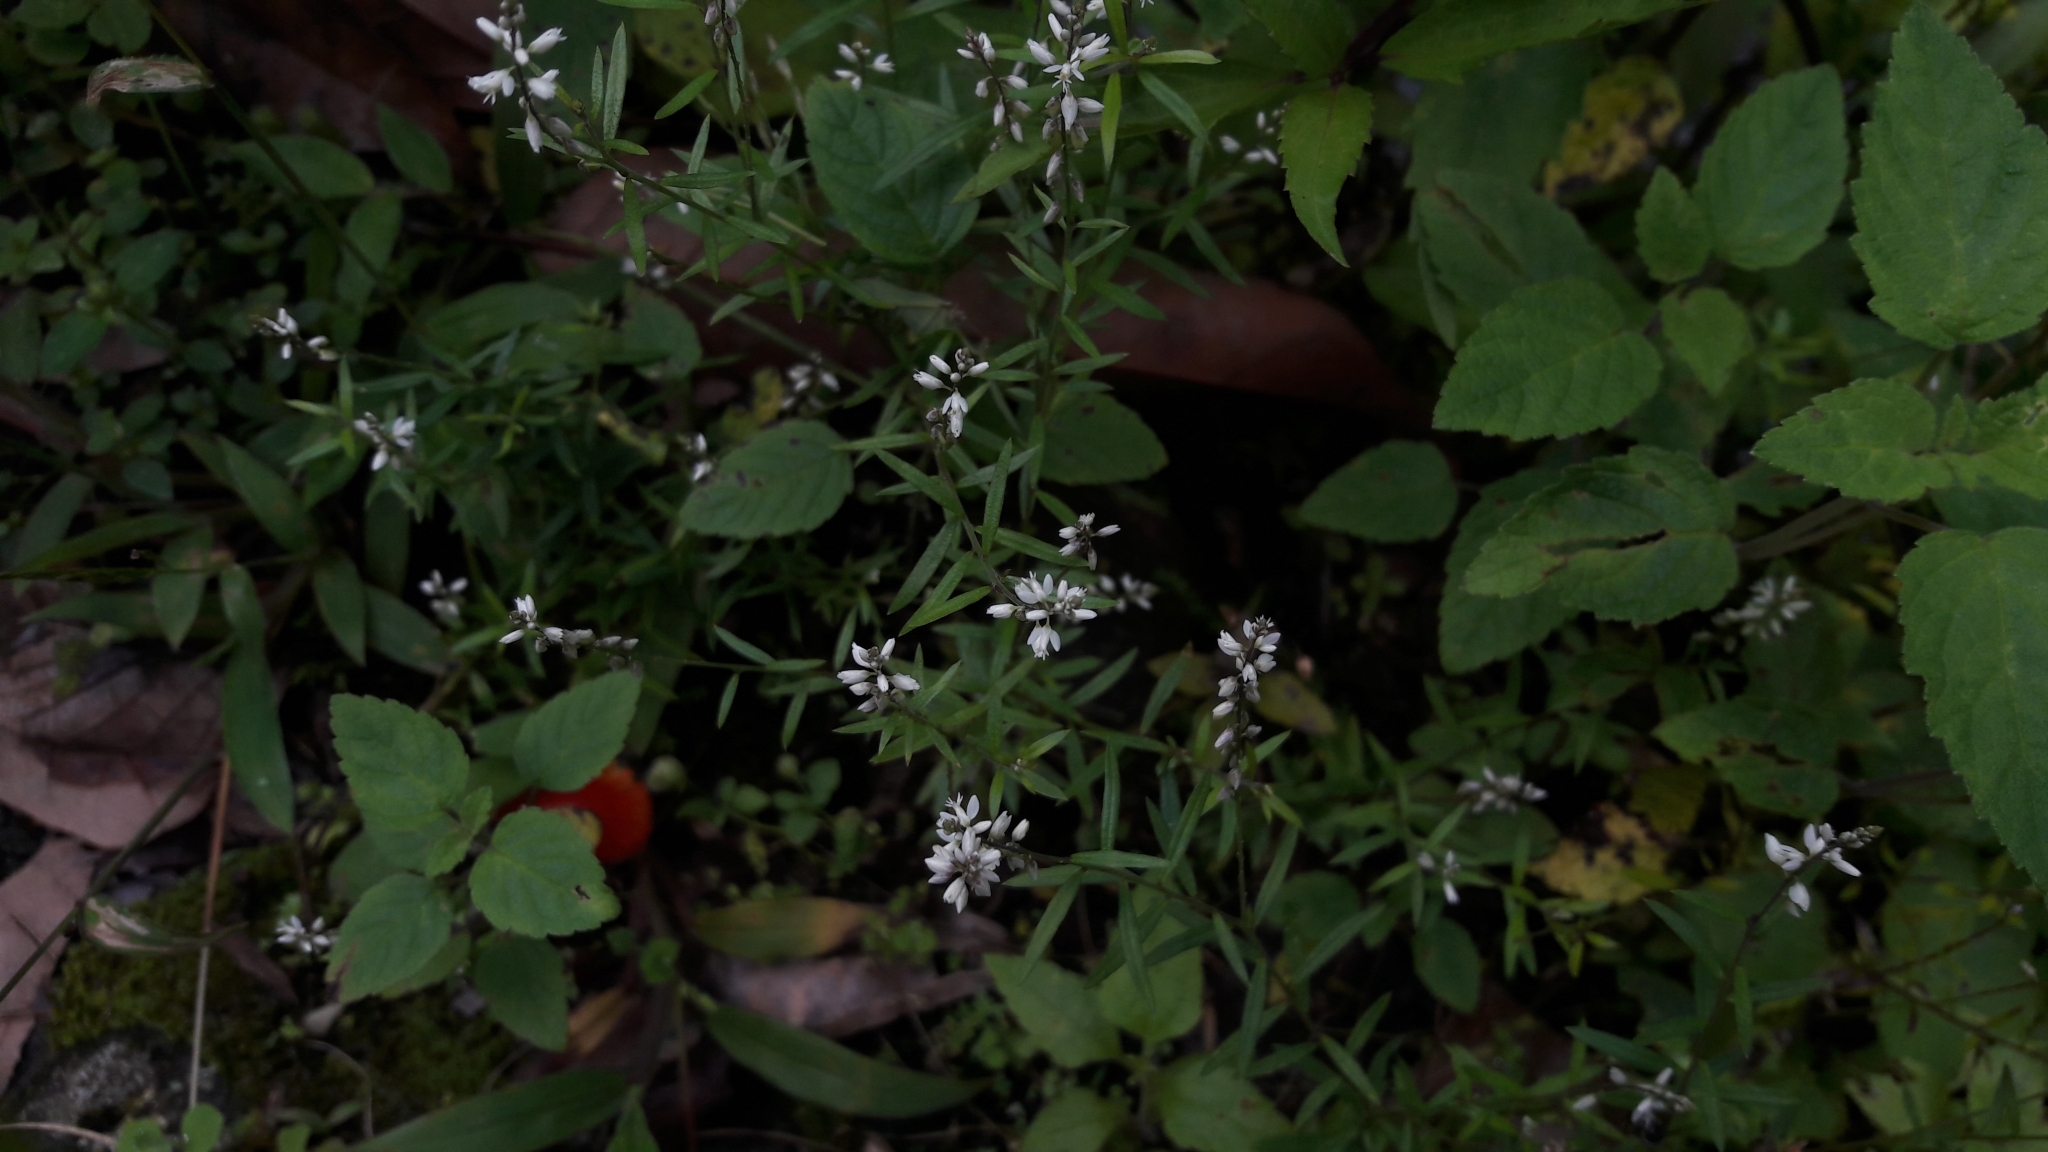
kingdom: Plantae
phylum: Tracheophyta
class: Magnoliopsida
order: Fabales
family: Polygalaceae
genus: Polygala
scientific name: Polygala paniculata
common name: Orosne
